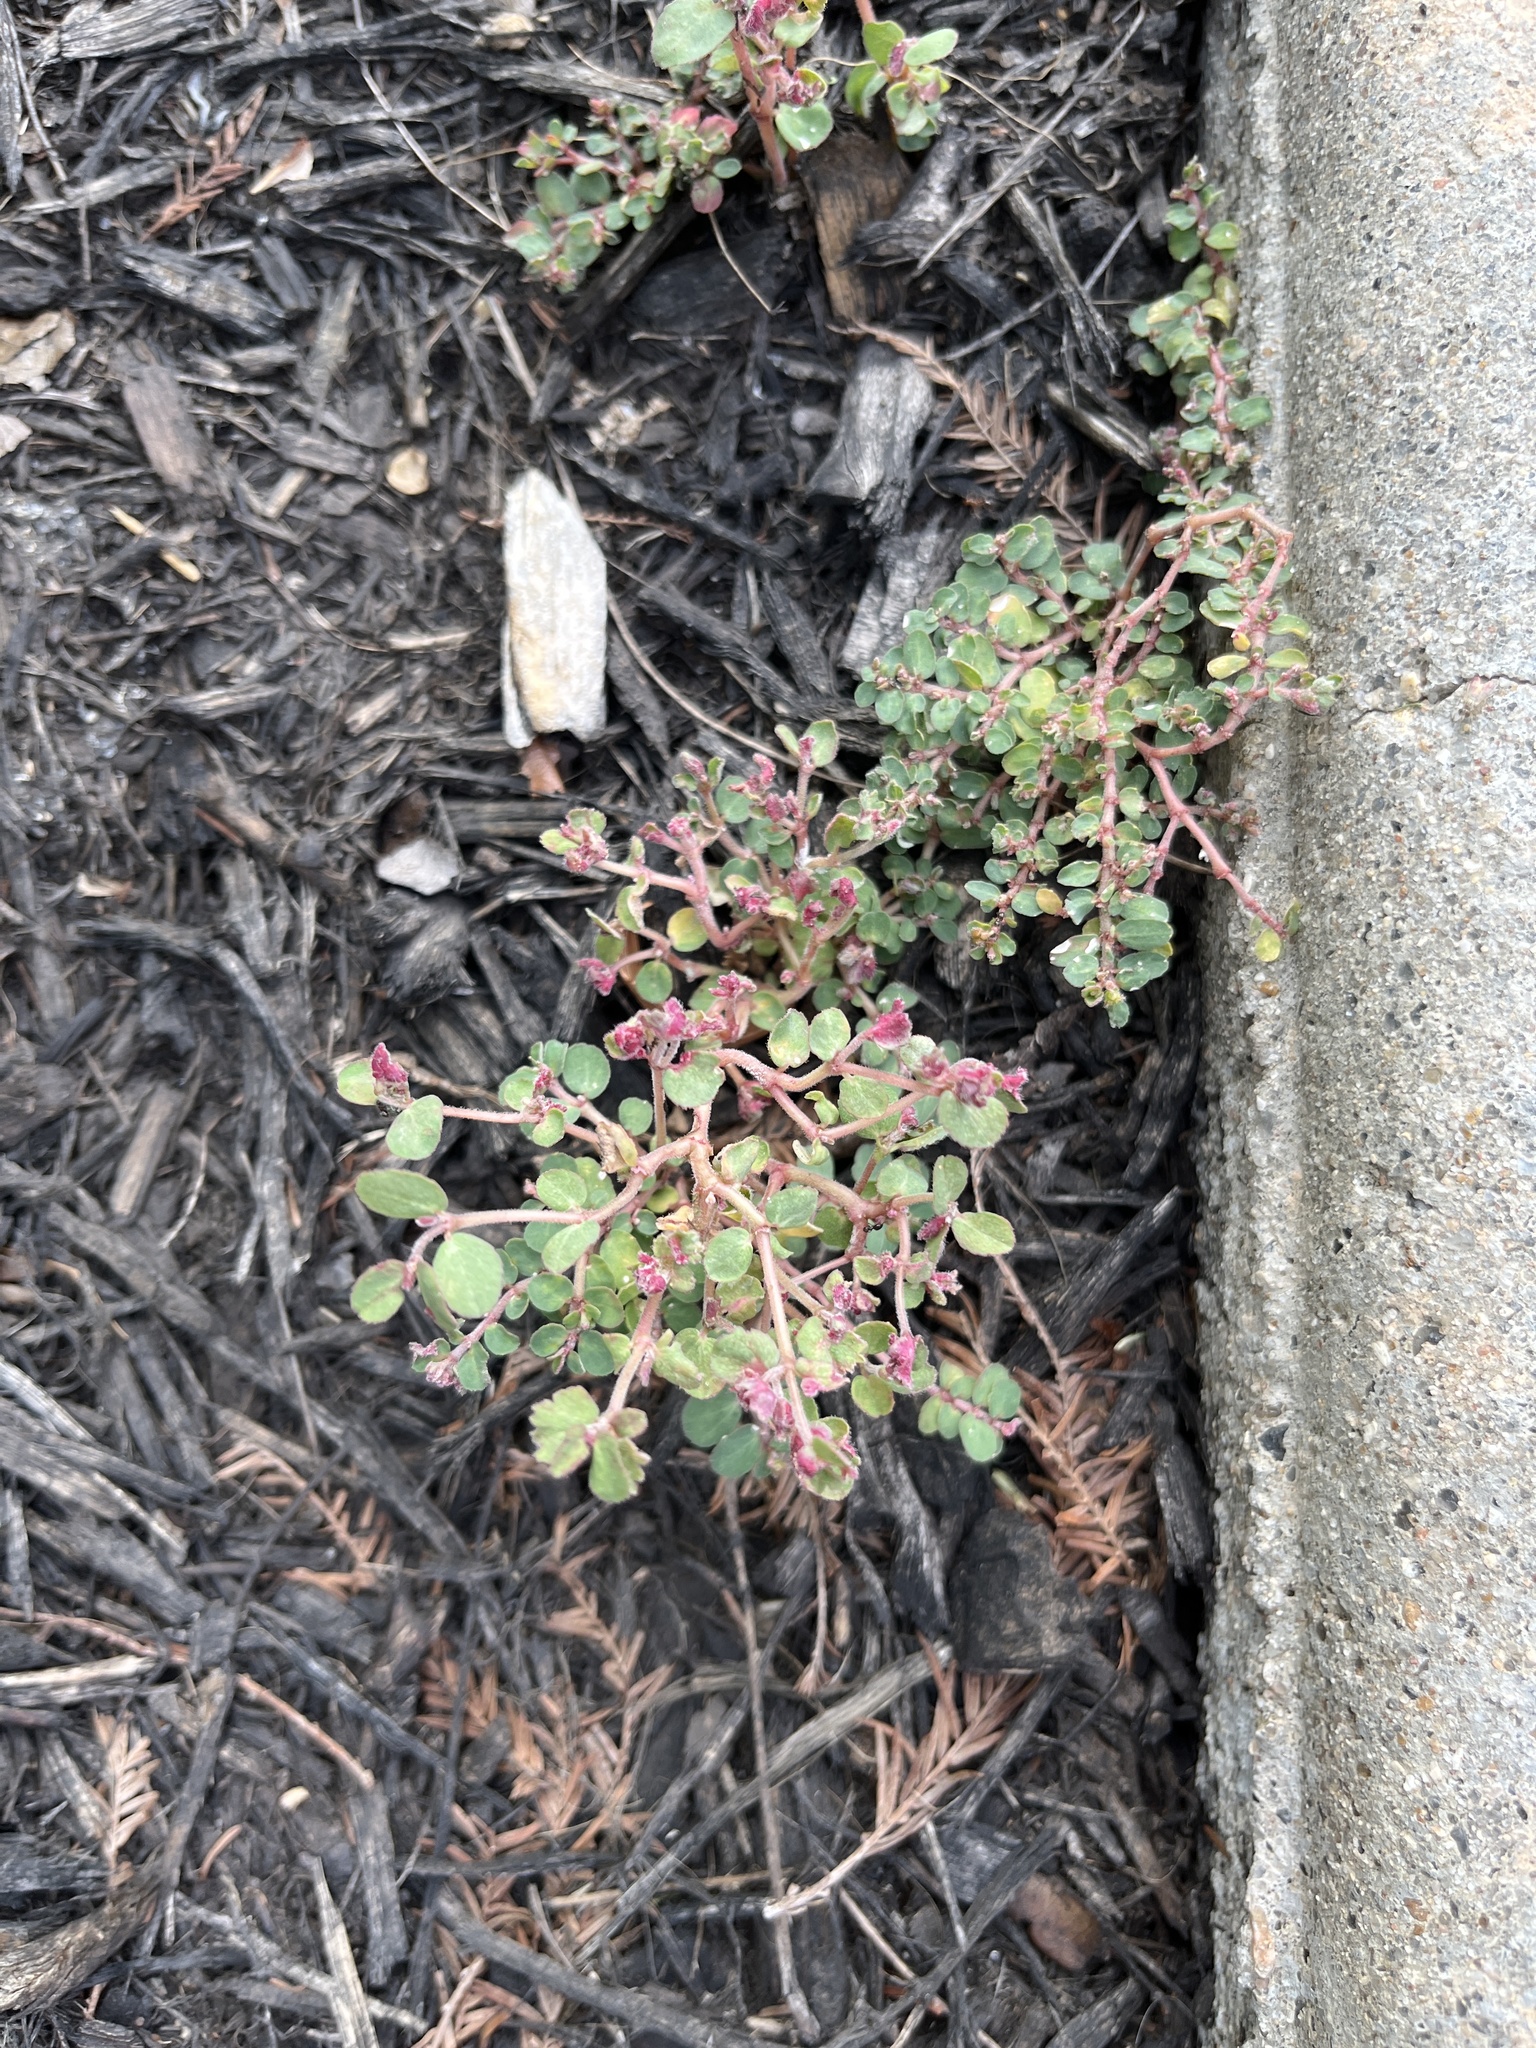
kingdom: Plantae
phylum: Tracheophyta
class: Magnoliopsida
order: Malpighiales
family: Euphorbiaceae
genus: Euphorbia
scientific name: Euphorbia prostrata
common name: Prostrate sandmat
